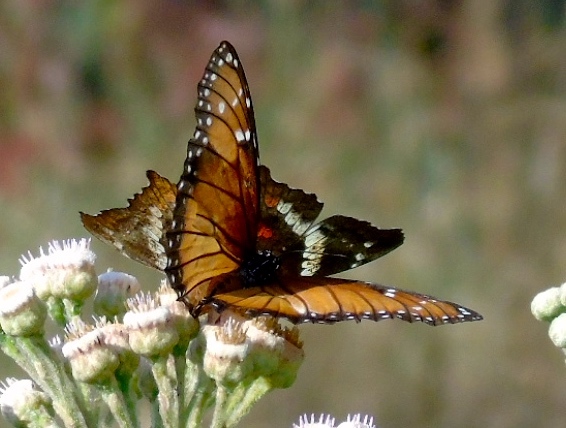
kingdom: Animalia
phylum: Arthropoda
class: Insecta
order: Lepidoptera
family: Nymphalidae
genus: Danaus
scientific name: Danaus eresimus
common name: Soldier
